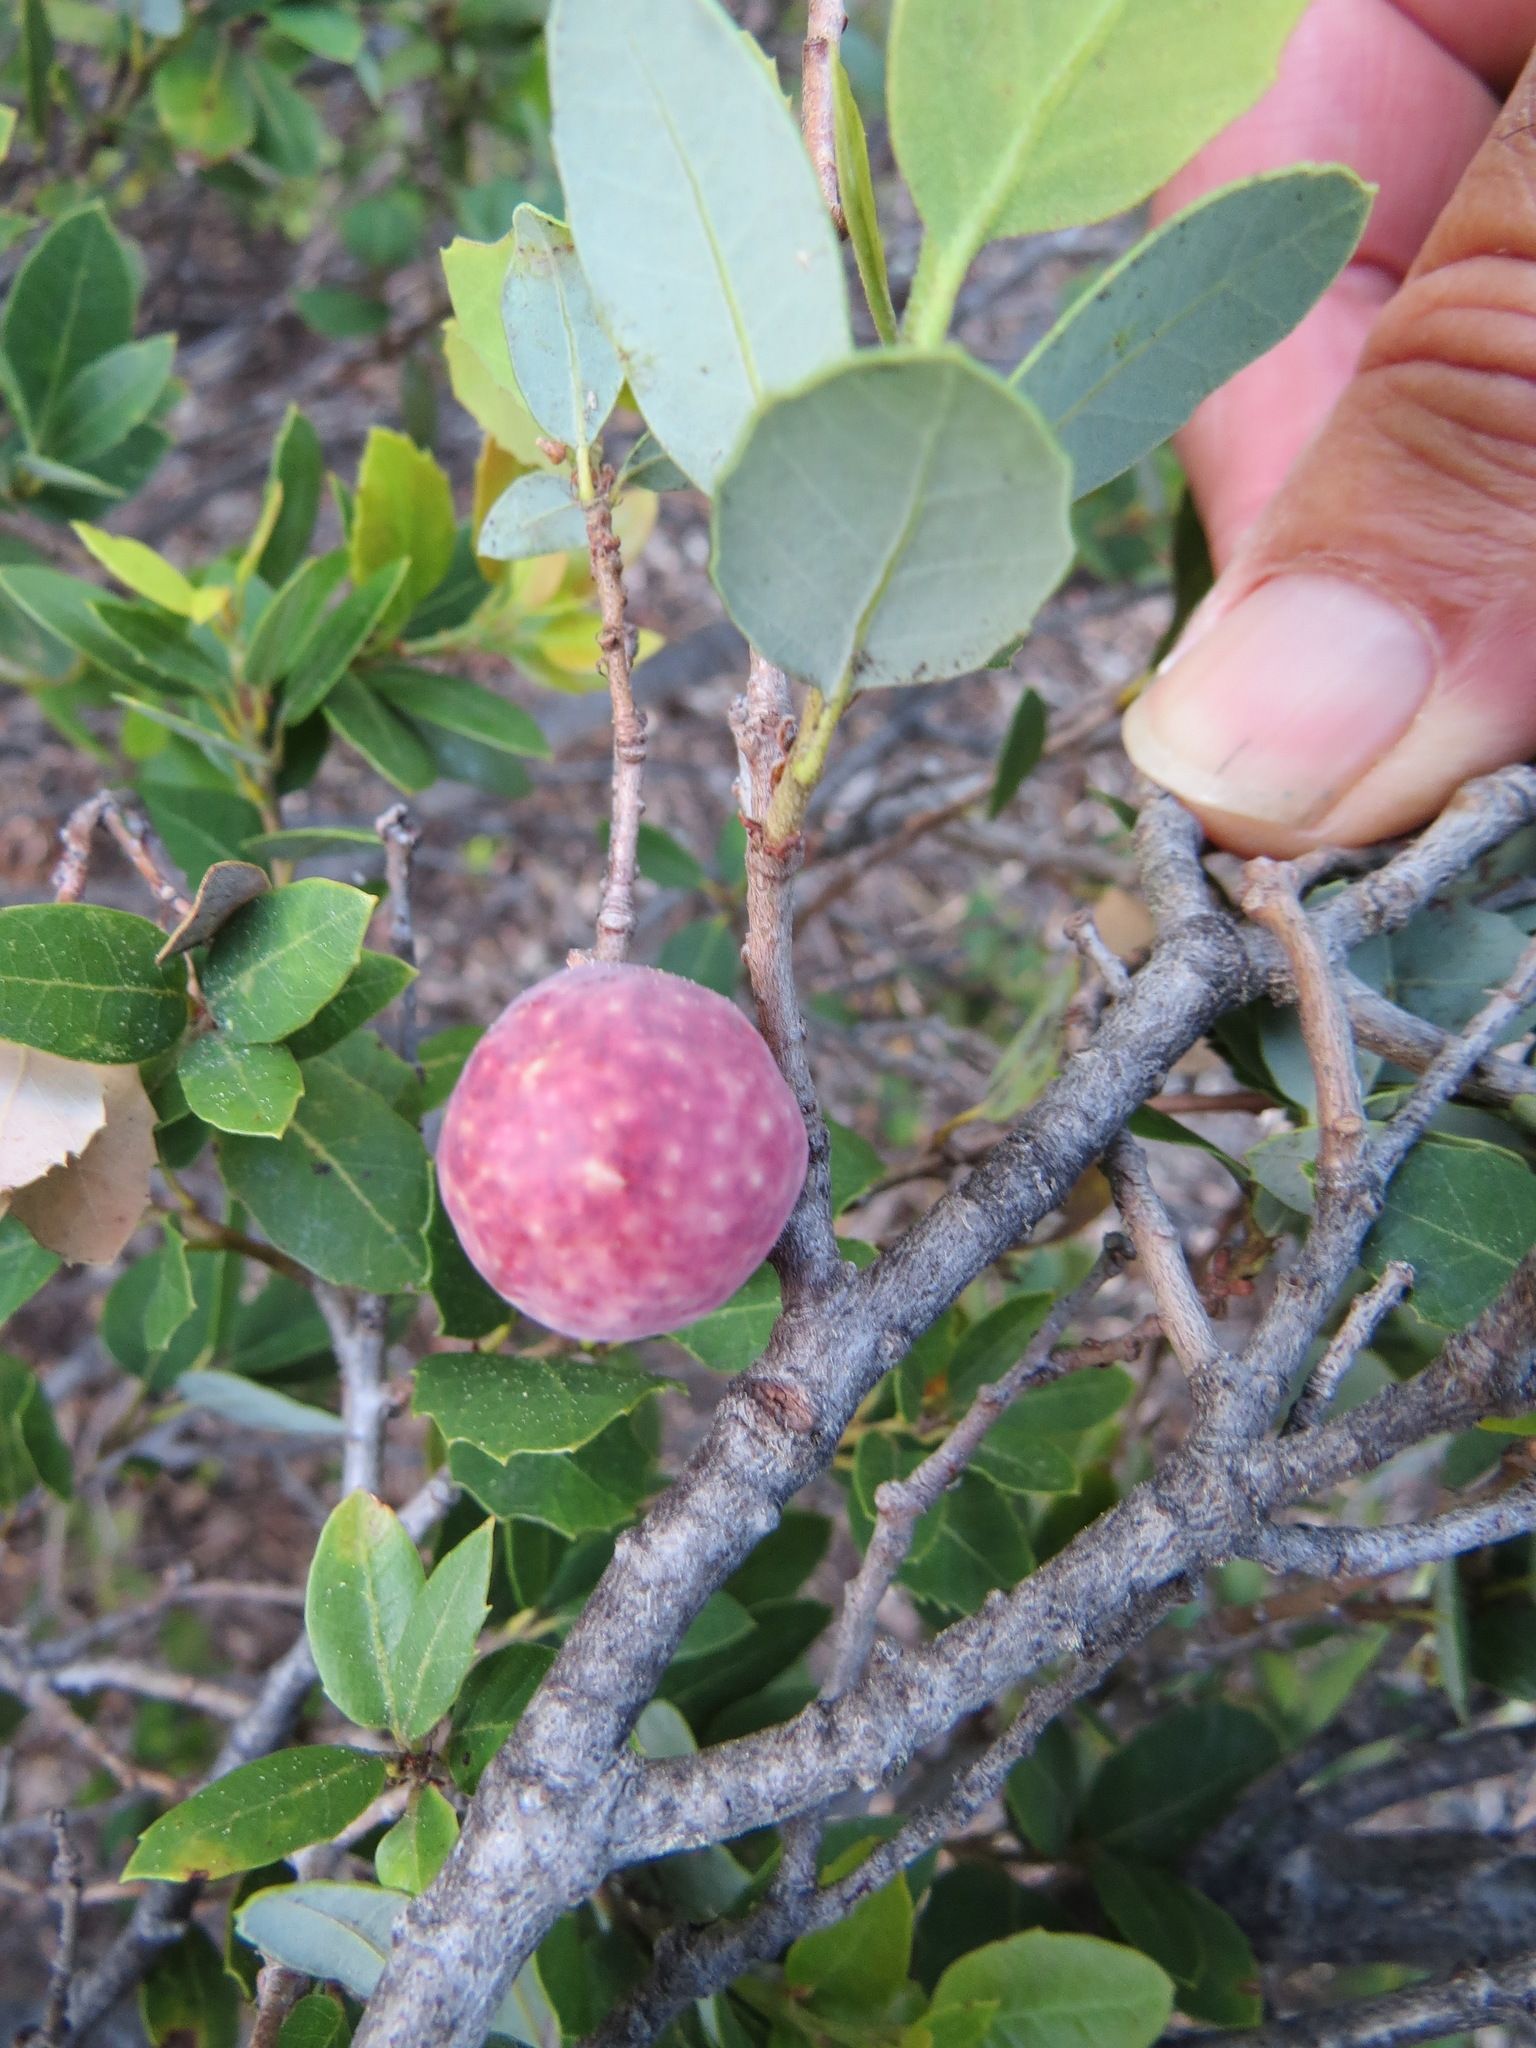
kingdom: Animalia
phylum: Arthropoda
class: Insecta
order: Hymenoptera
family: Cynipidae
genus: Andricus
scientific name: Andricus
